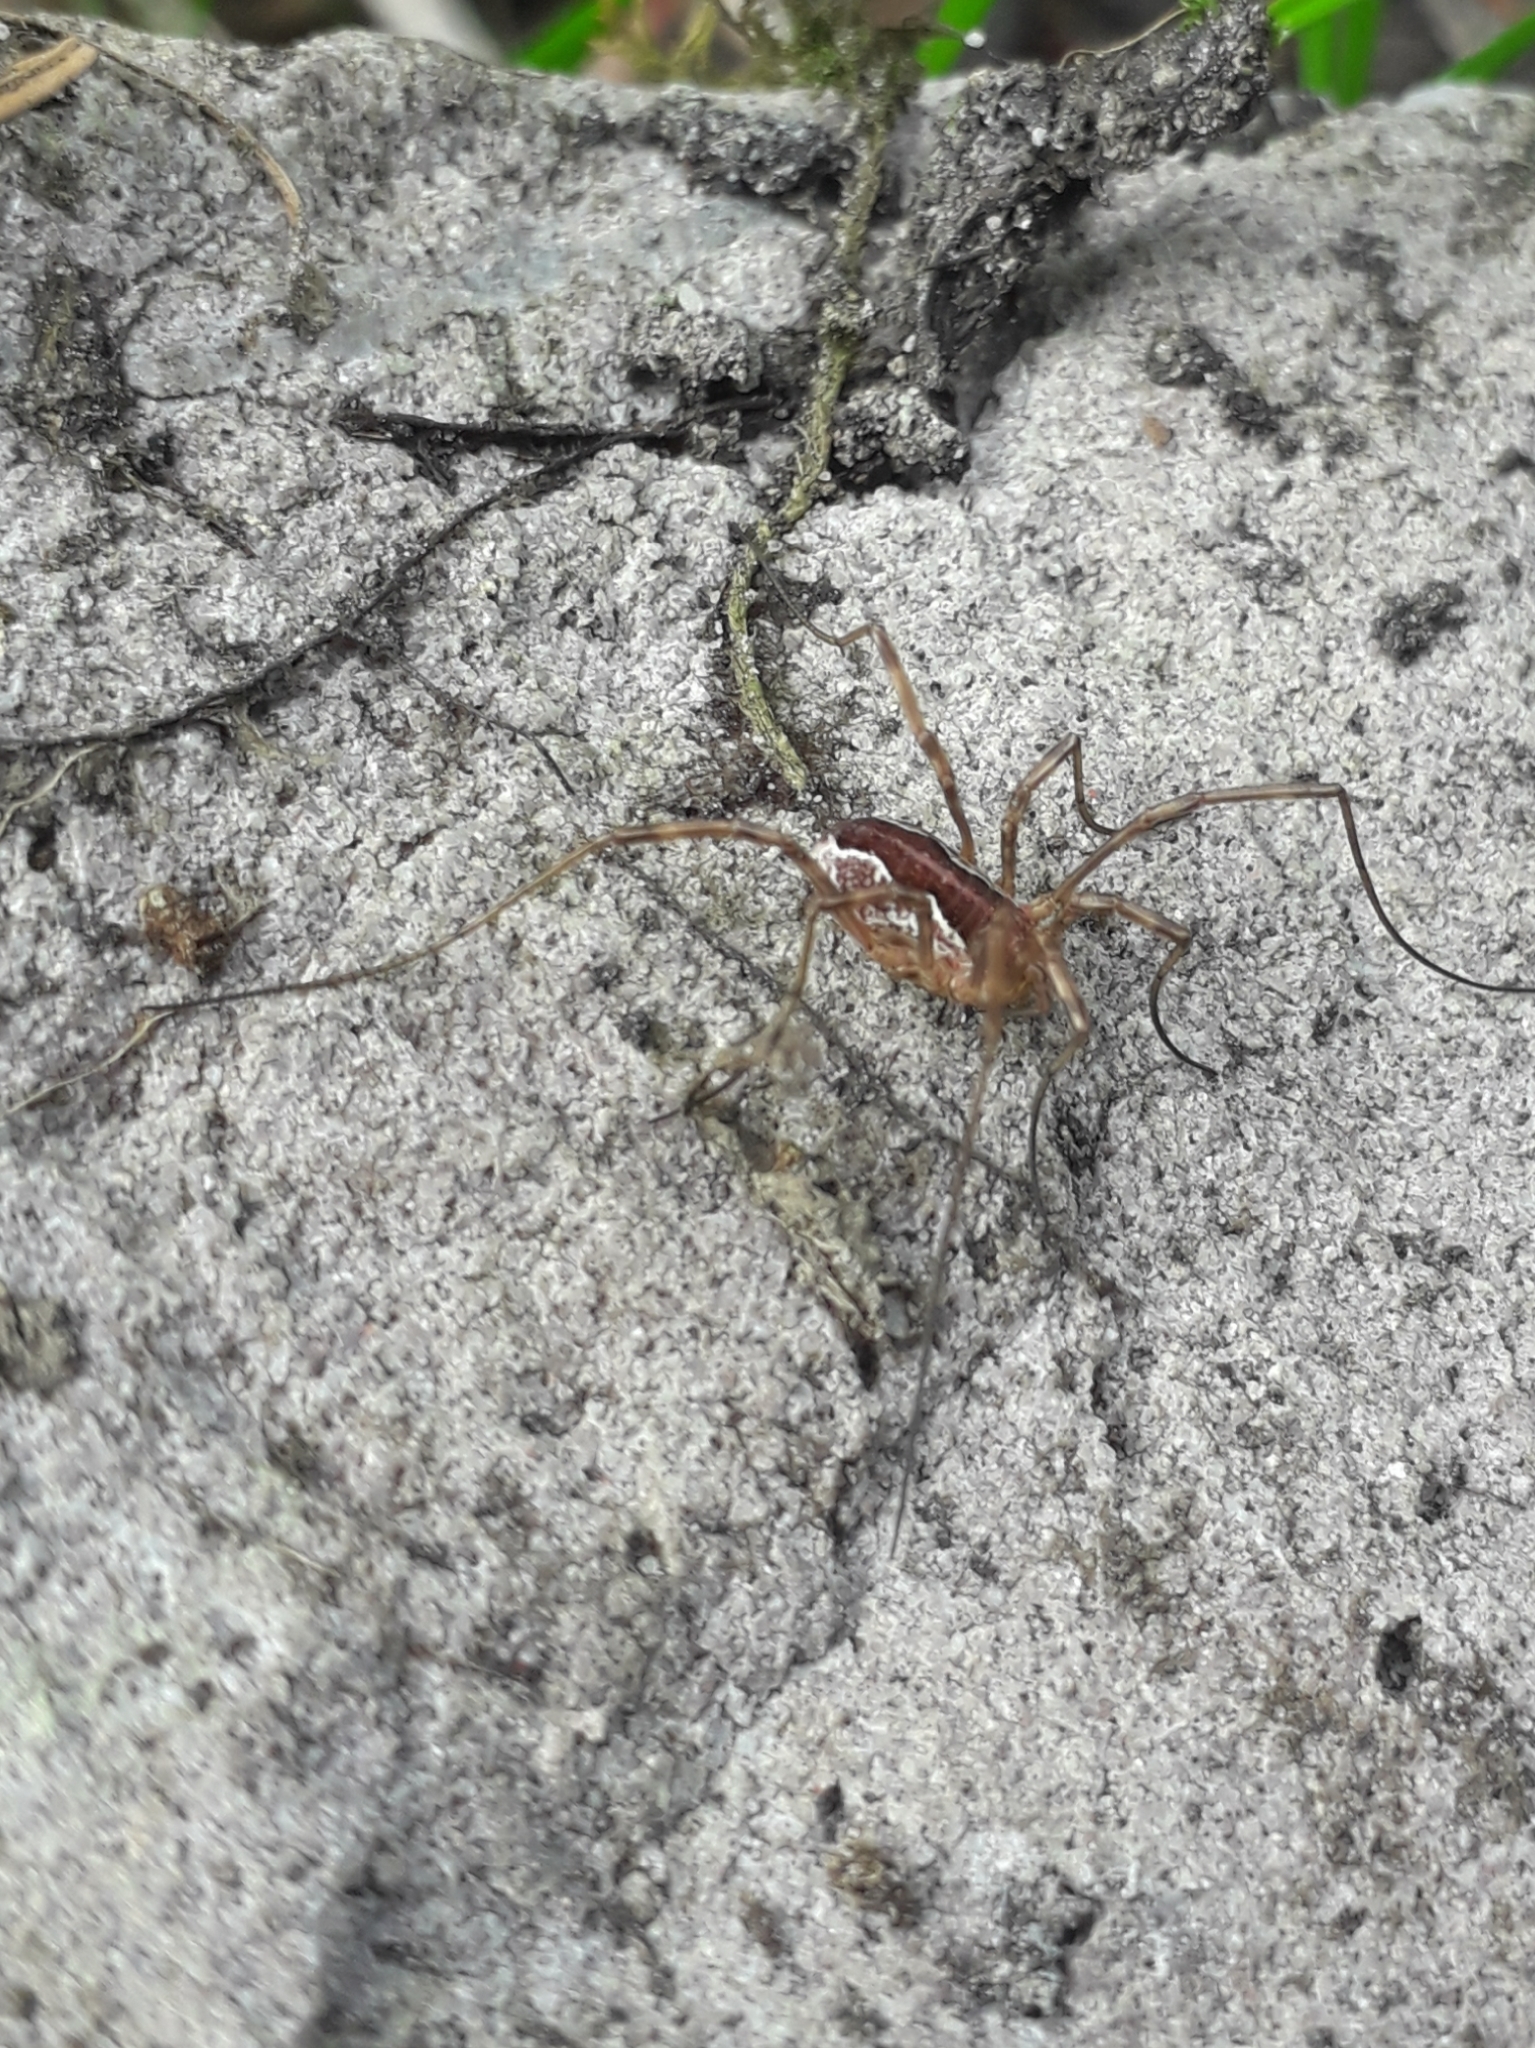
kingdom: Animalia
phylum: Arthropoda
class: Arachnida
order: Opiliones
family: Phalangiidae
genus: Mitopus
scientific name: Mitopus morio
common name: Saddleback harvestman
